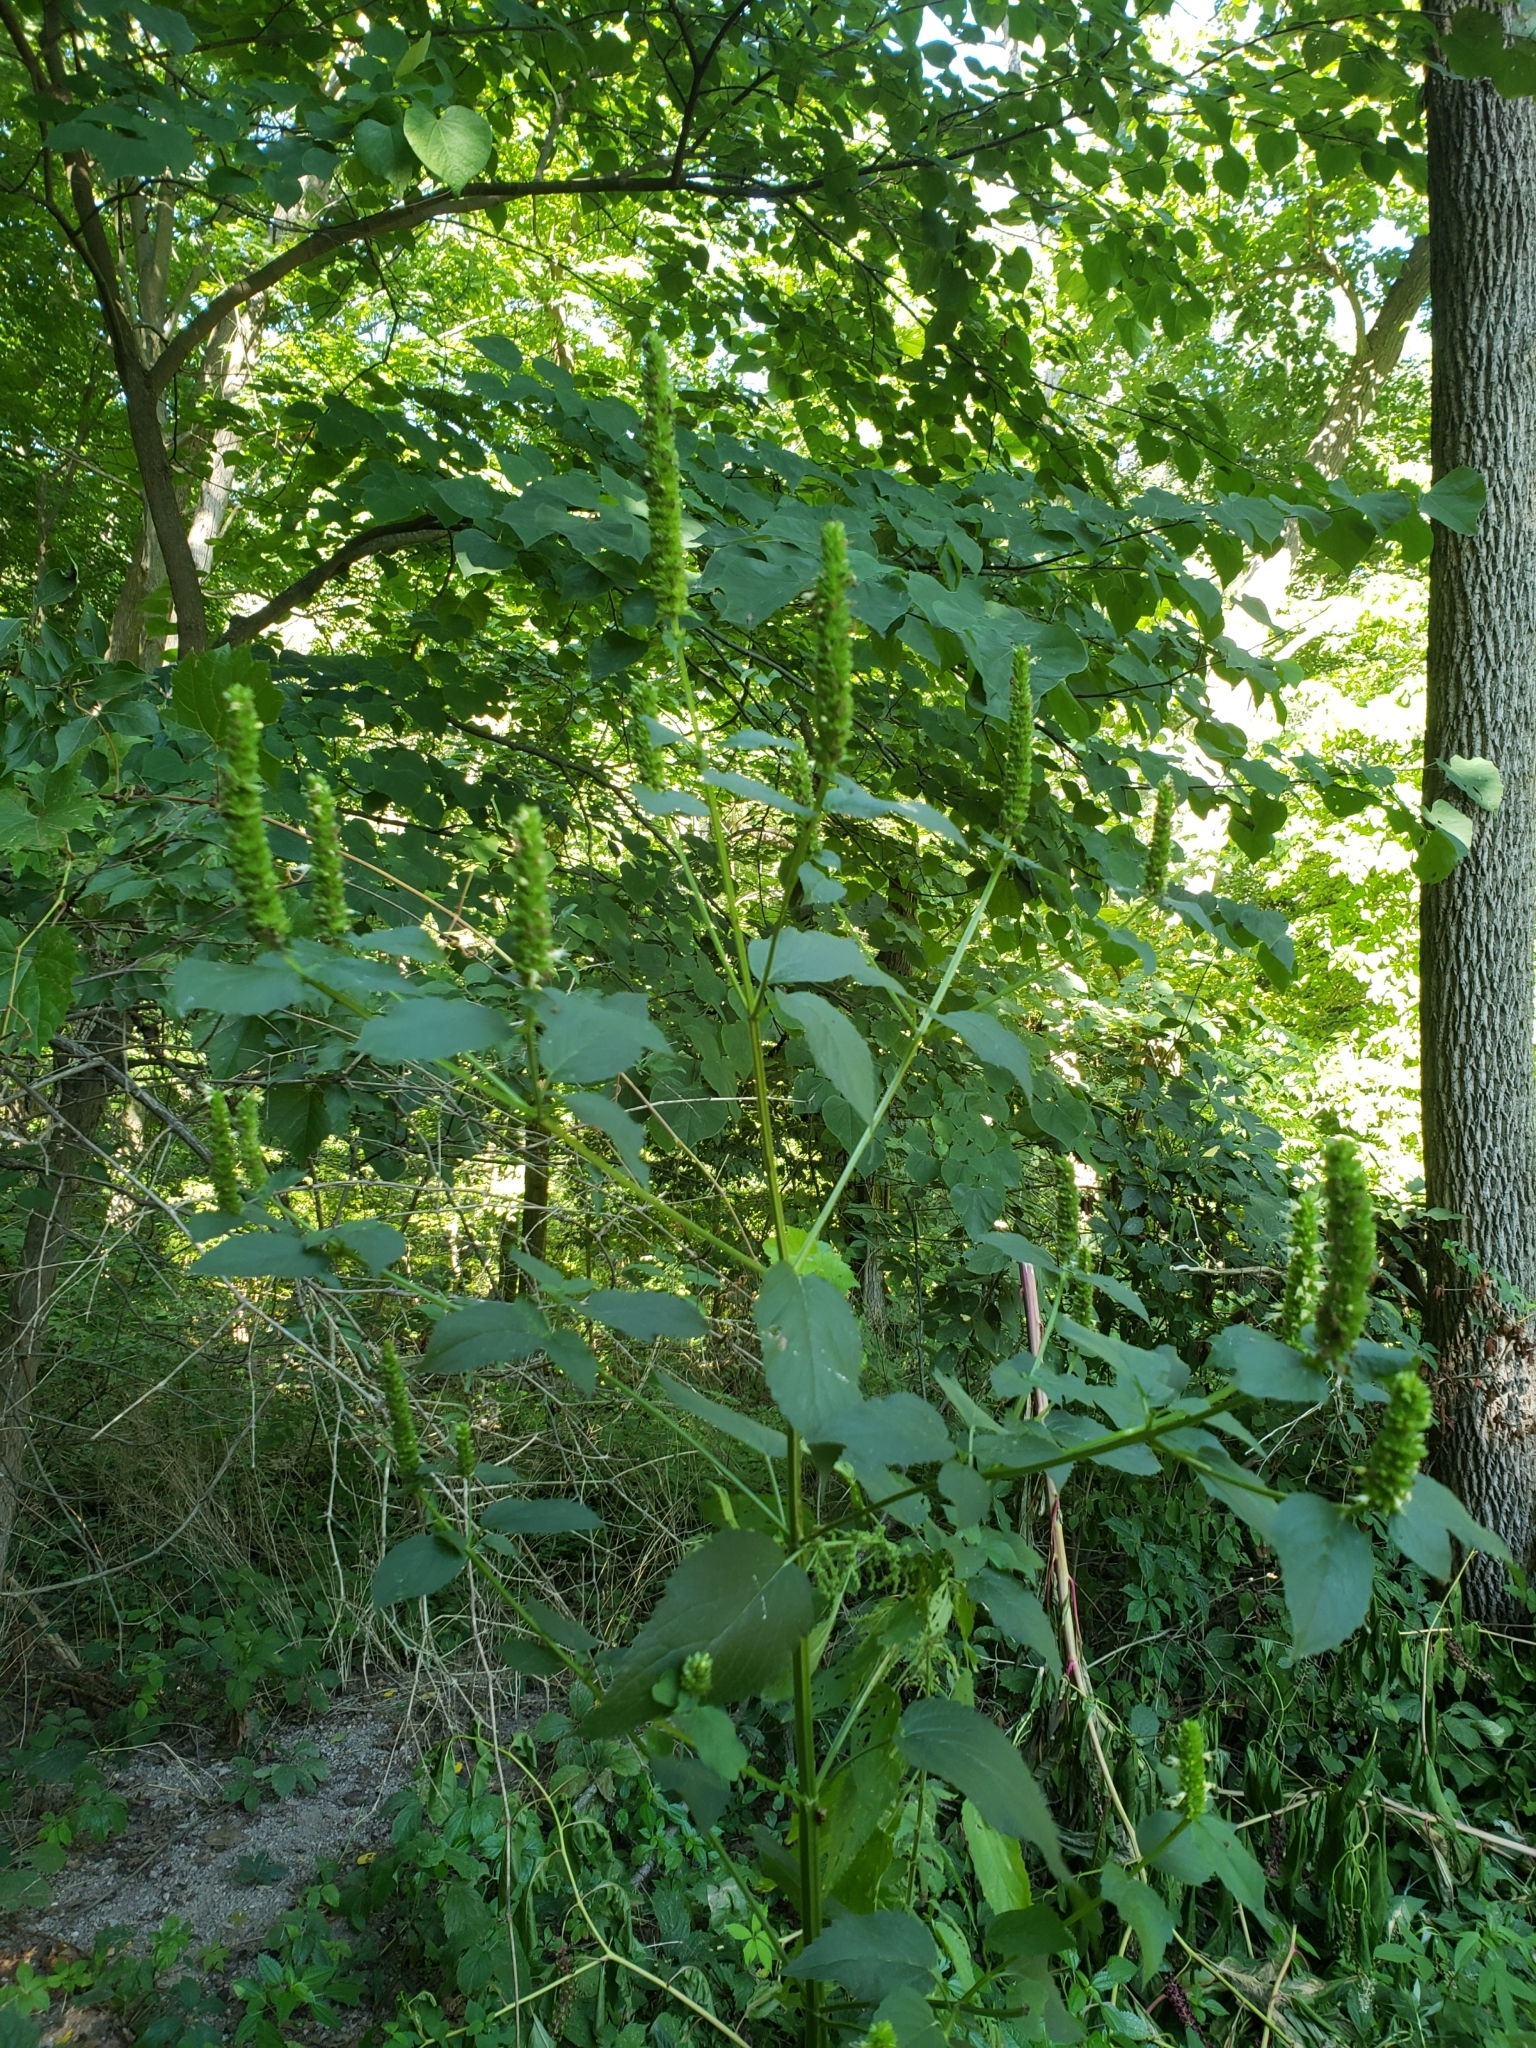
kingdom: Plantae
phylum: Tracheophyta
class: Magnoliopsida
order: Lamiales
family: Lamiaceae
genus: Agastache
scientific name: Agastache nepetoides
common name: Catnip giant hyssop
